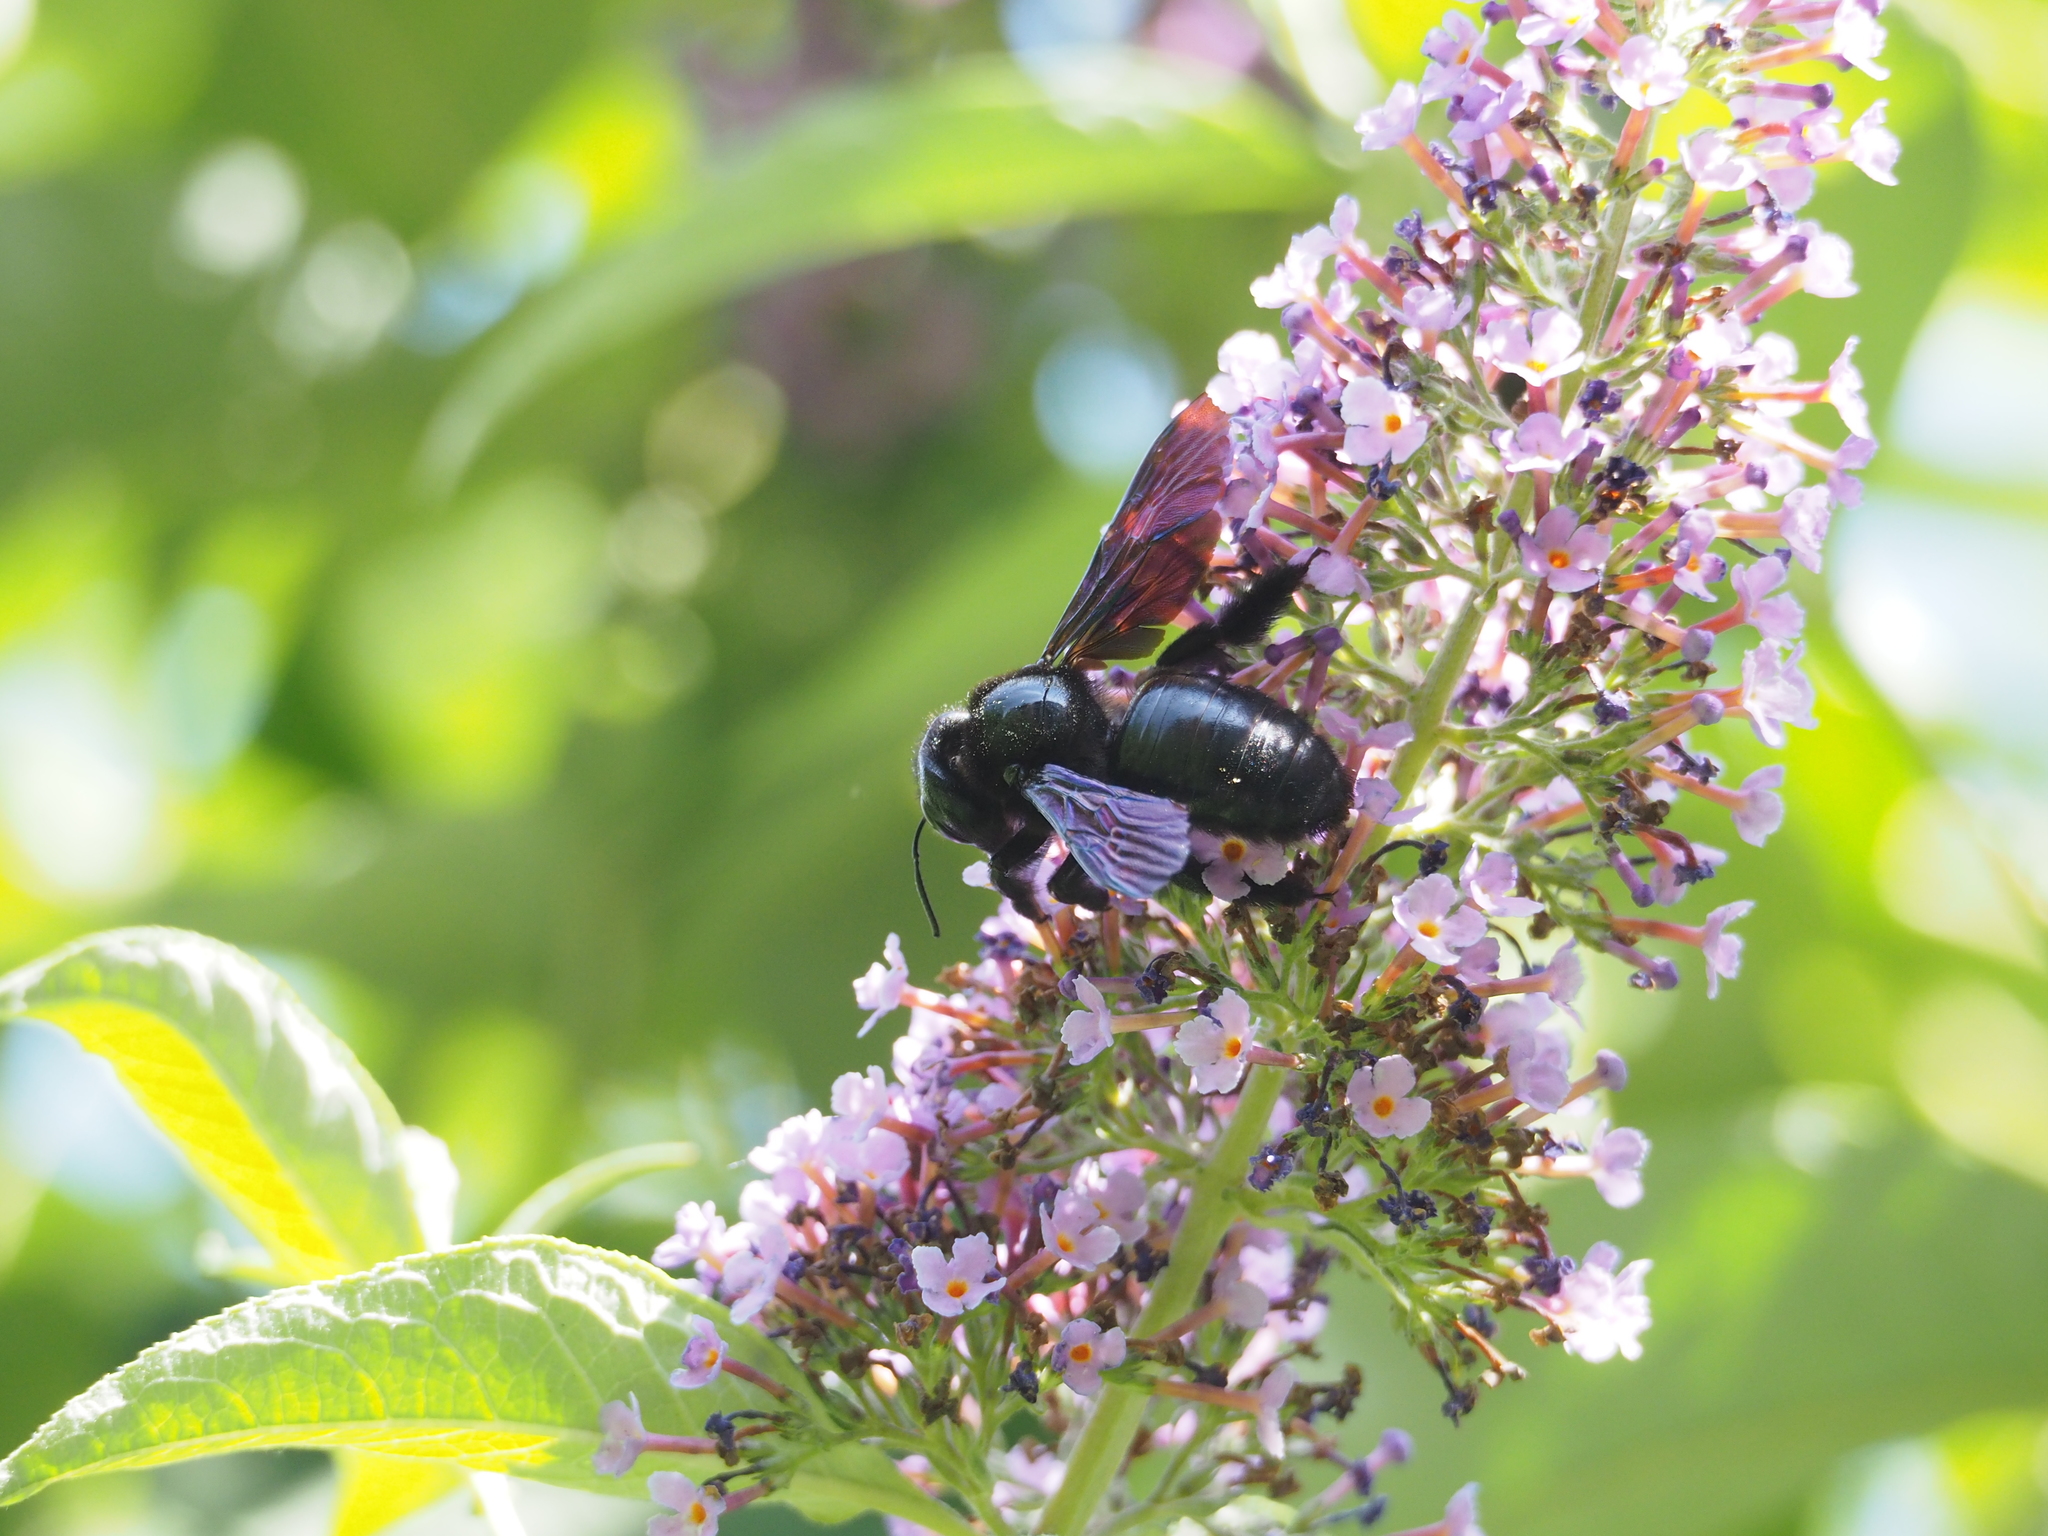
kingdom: Animalia
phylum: Arthropoda
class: Insecta
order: Hymenoptera
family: Apidae
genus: Xylocopa
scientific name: Xylocopa violacea
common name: Violet carpenter bee
